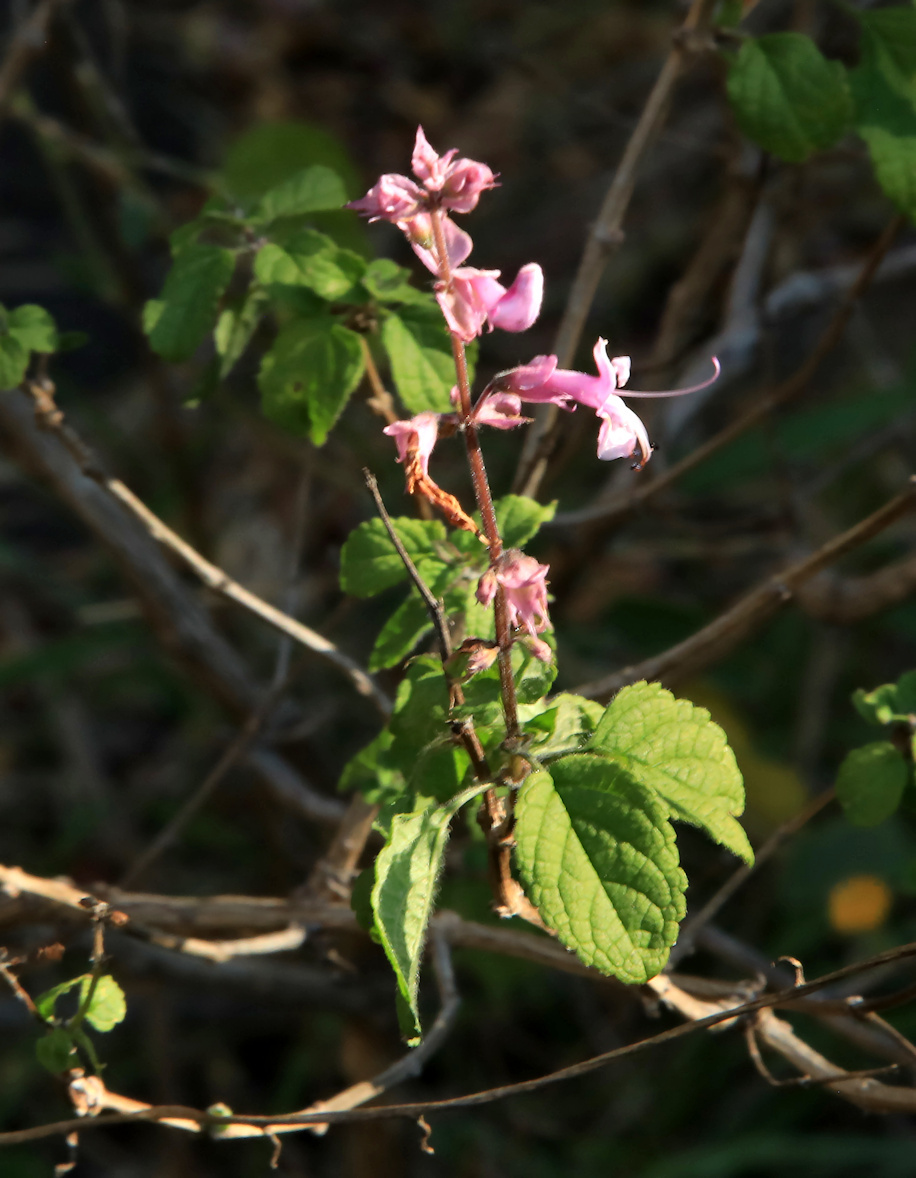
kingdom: Plantae
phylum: Tracheophyta
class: Magnoliopsida
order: Lamiales
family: Lamiaceae
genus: Ocimum
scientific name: Ocimum labiatum
